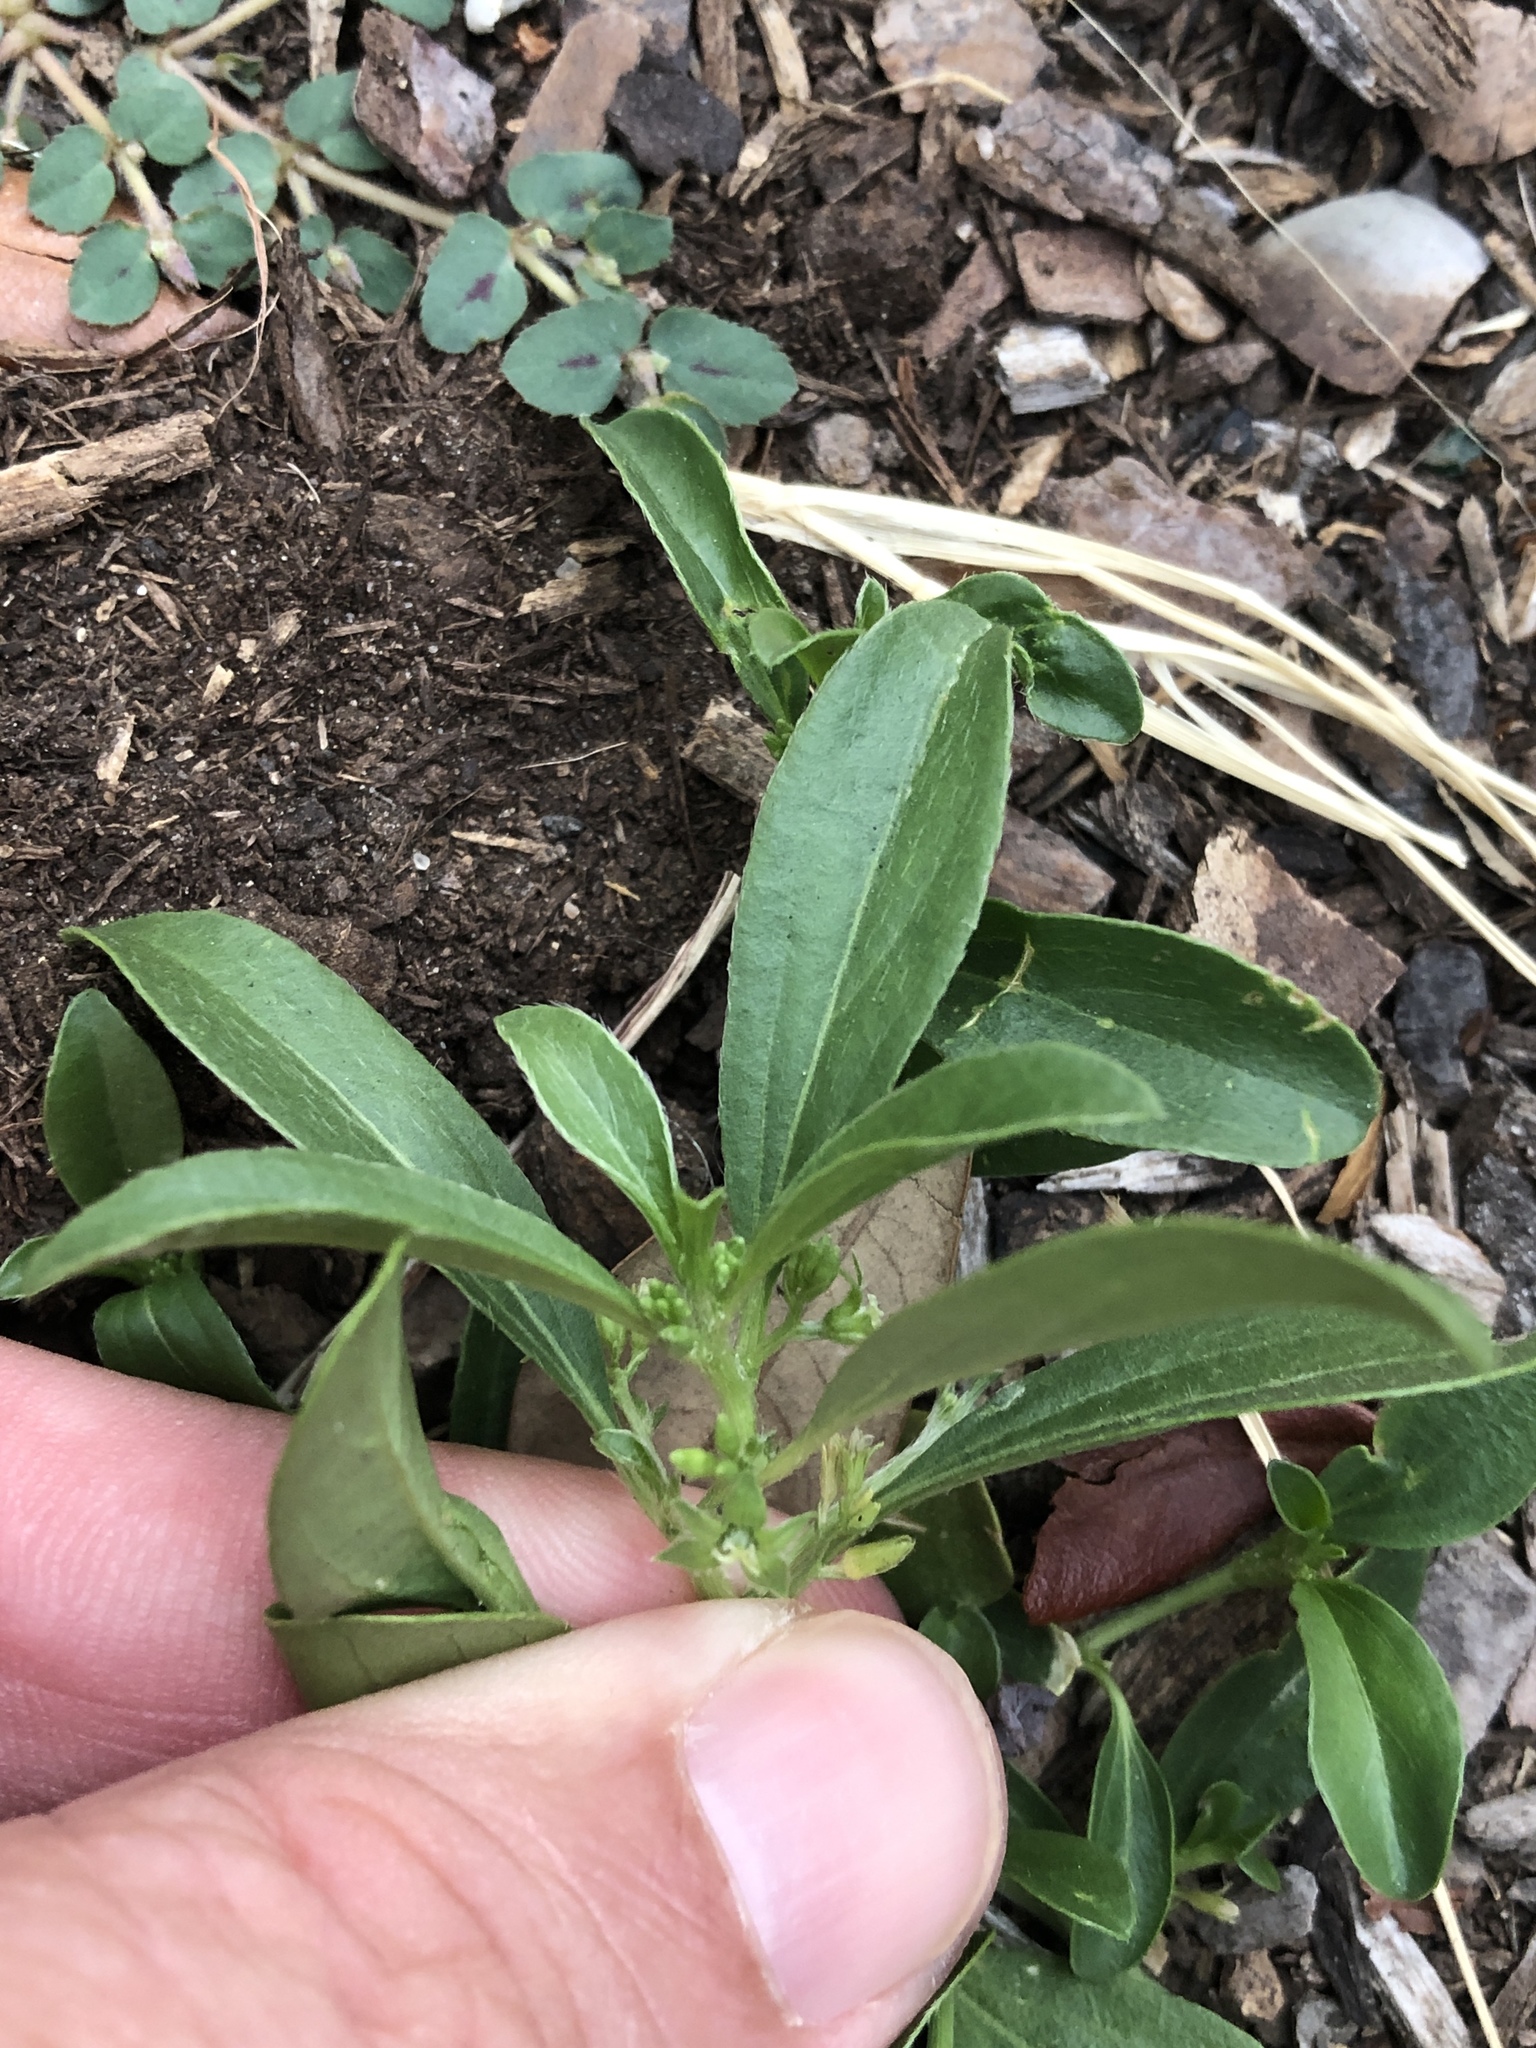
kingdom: Plantae
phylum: Tracheophyta
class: Magnoliopsida
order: Malpighiales
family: Euphorbiaceae
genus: Ditaxis
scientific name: Ditaxis humilis
